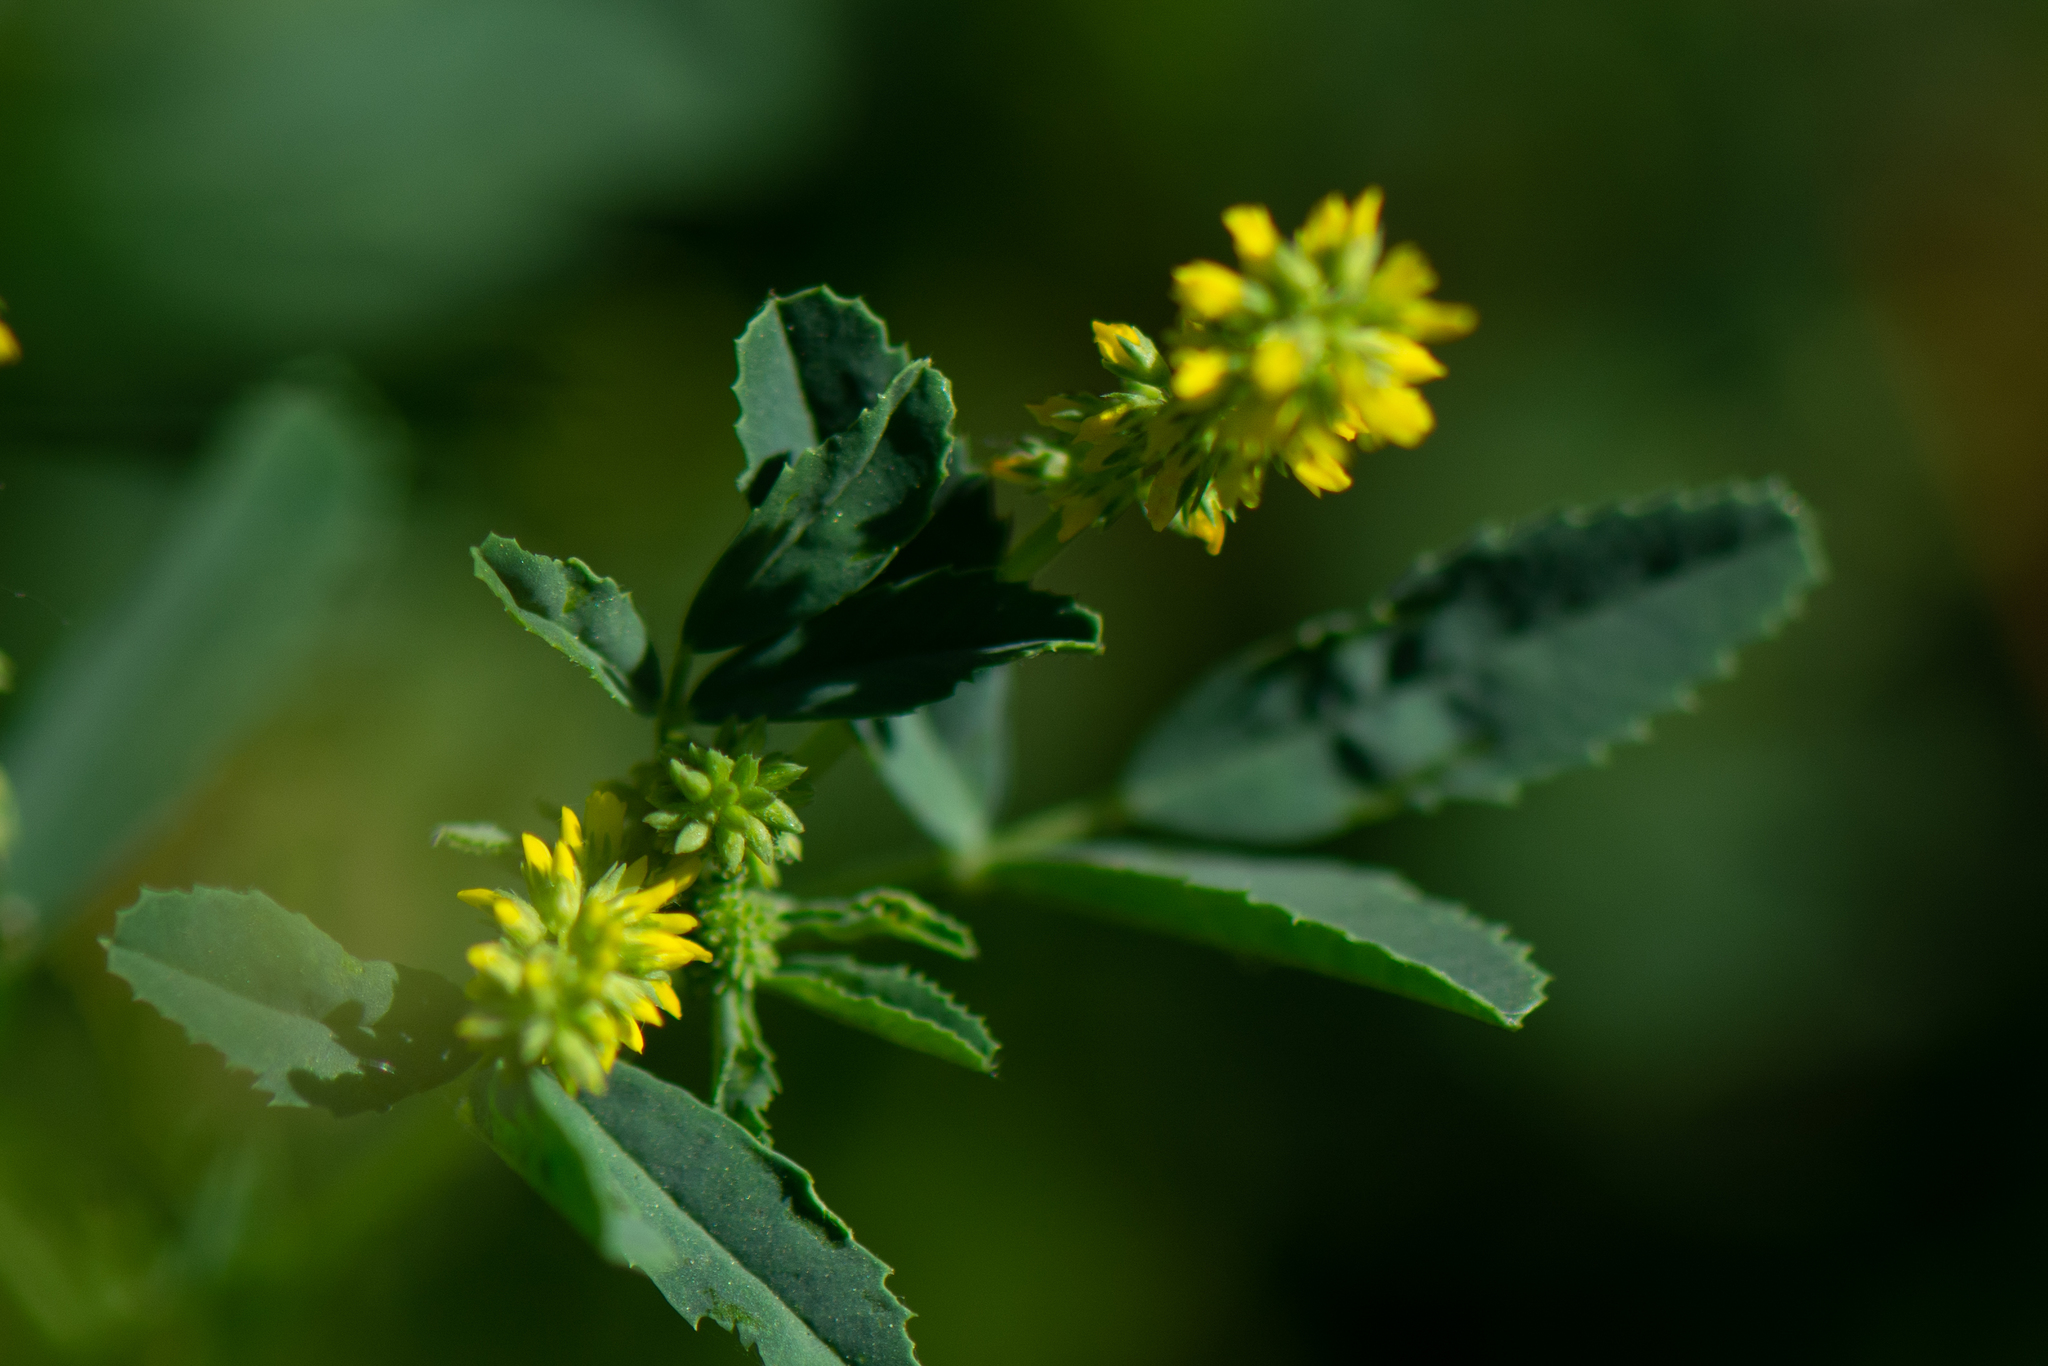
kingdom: Plantae
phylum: Tracheophyta
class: Magnoliopsida
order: Fabales
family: Fabaceae
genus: Melilotus
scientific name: Melilotus indicus
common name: Small melilot
